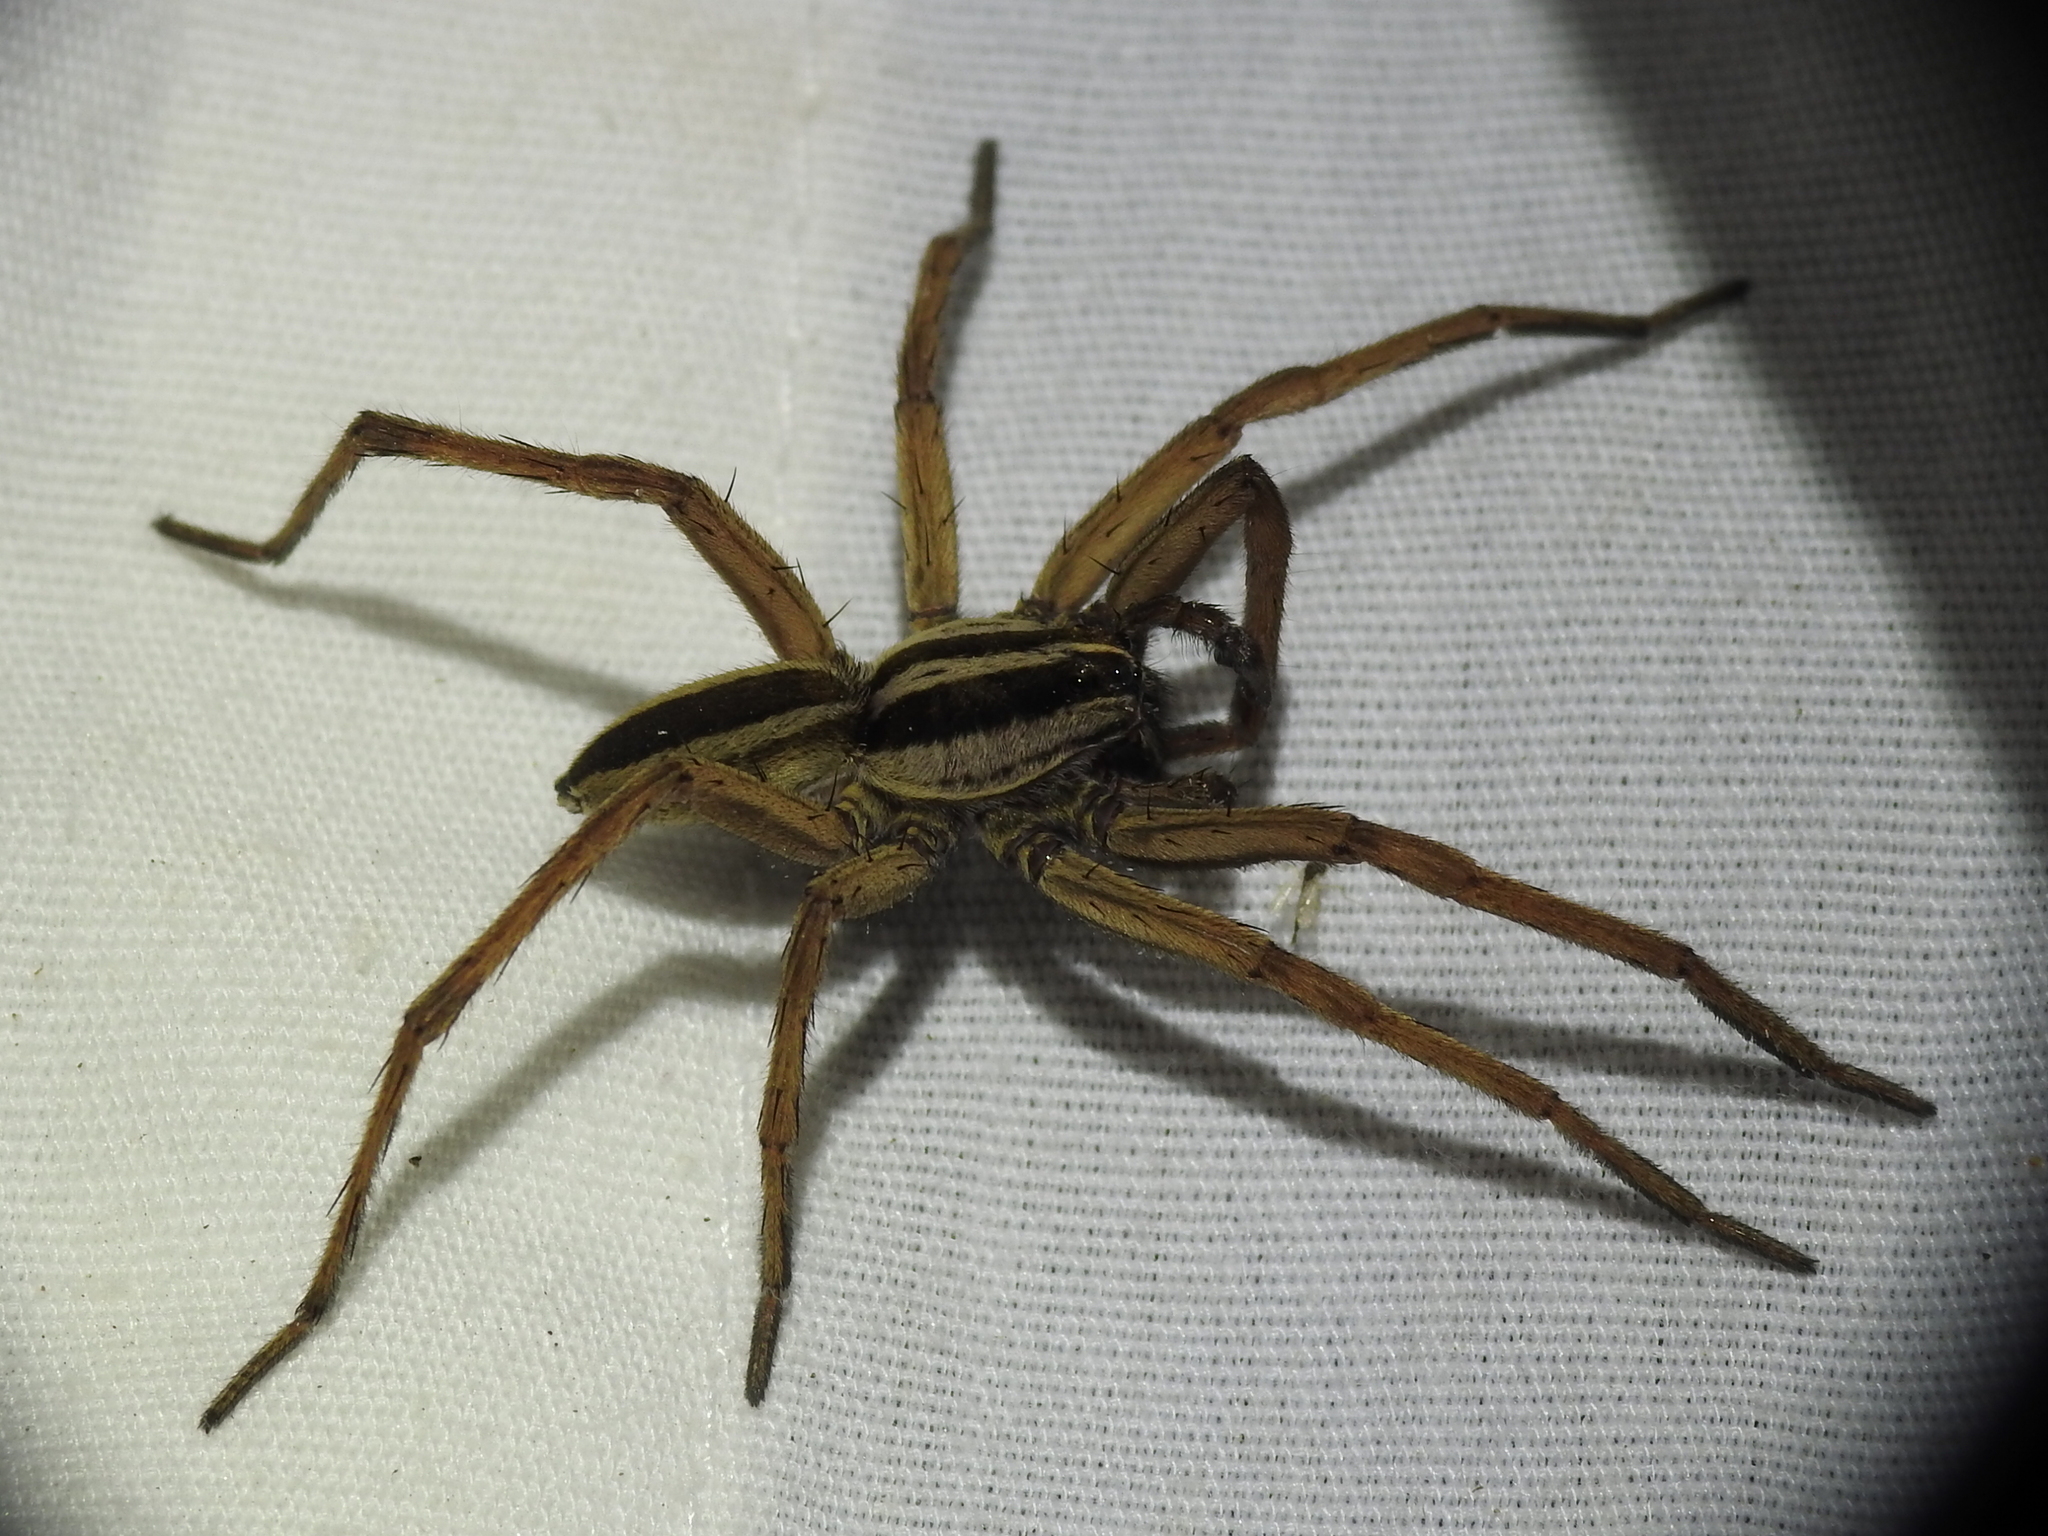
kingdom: Animalia
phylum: Arthropoda
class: Arachnida
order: Araneae
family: Lycosidae
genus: Rabidosa
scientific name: Rabidosa punctulata
